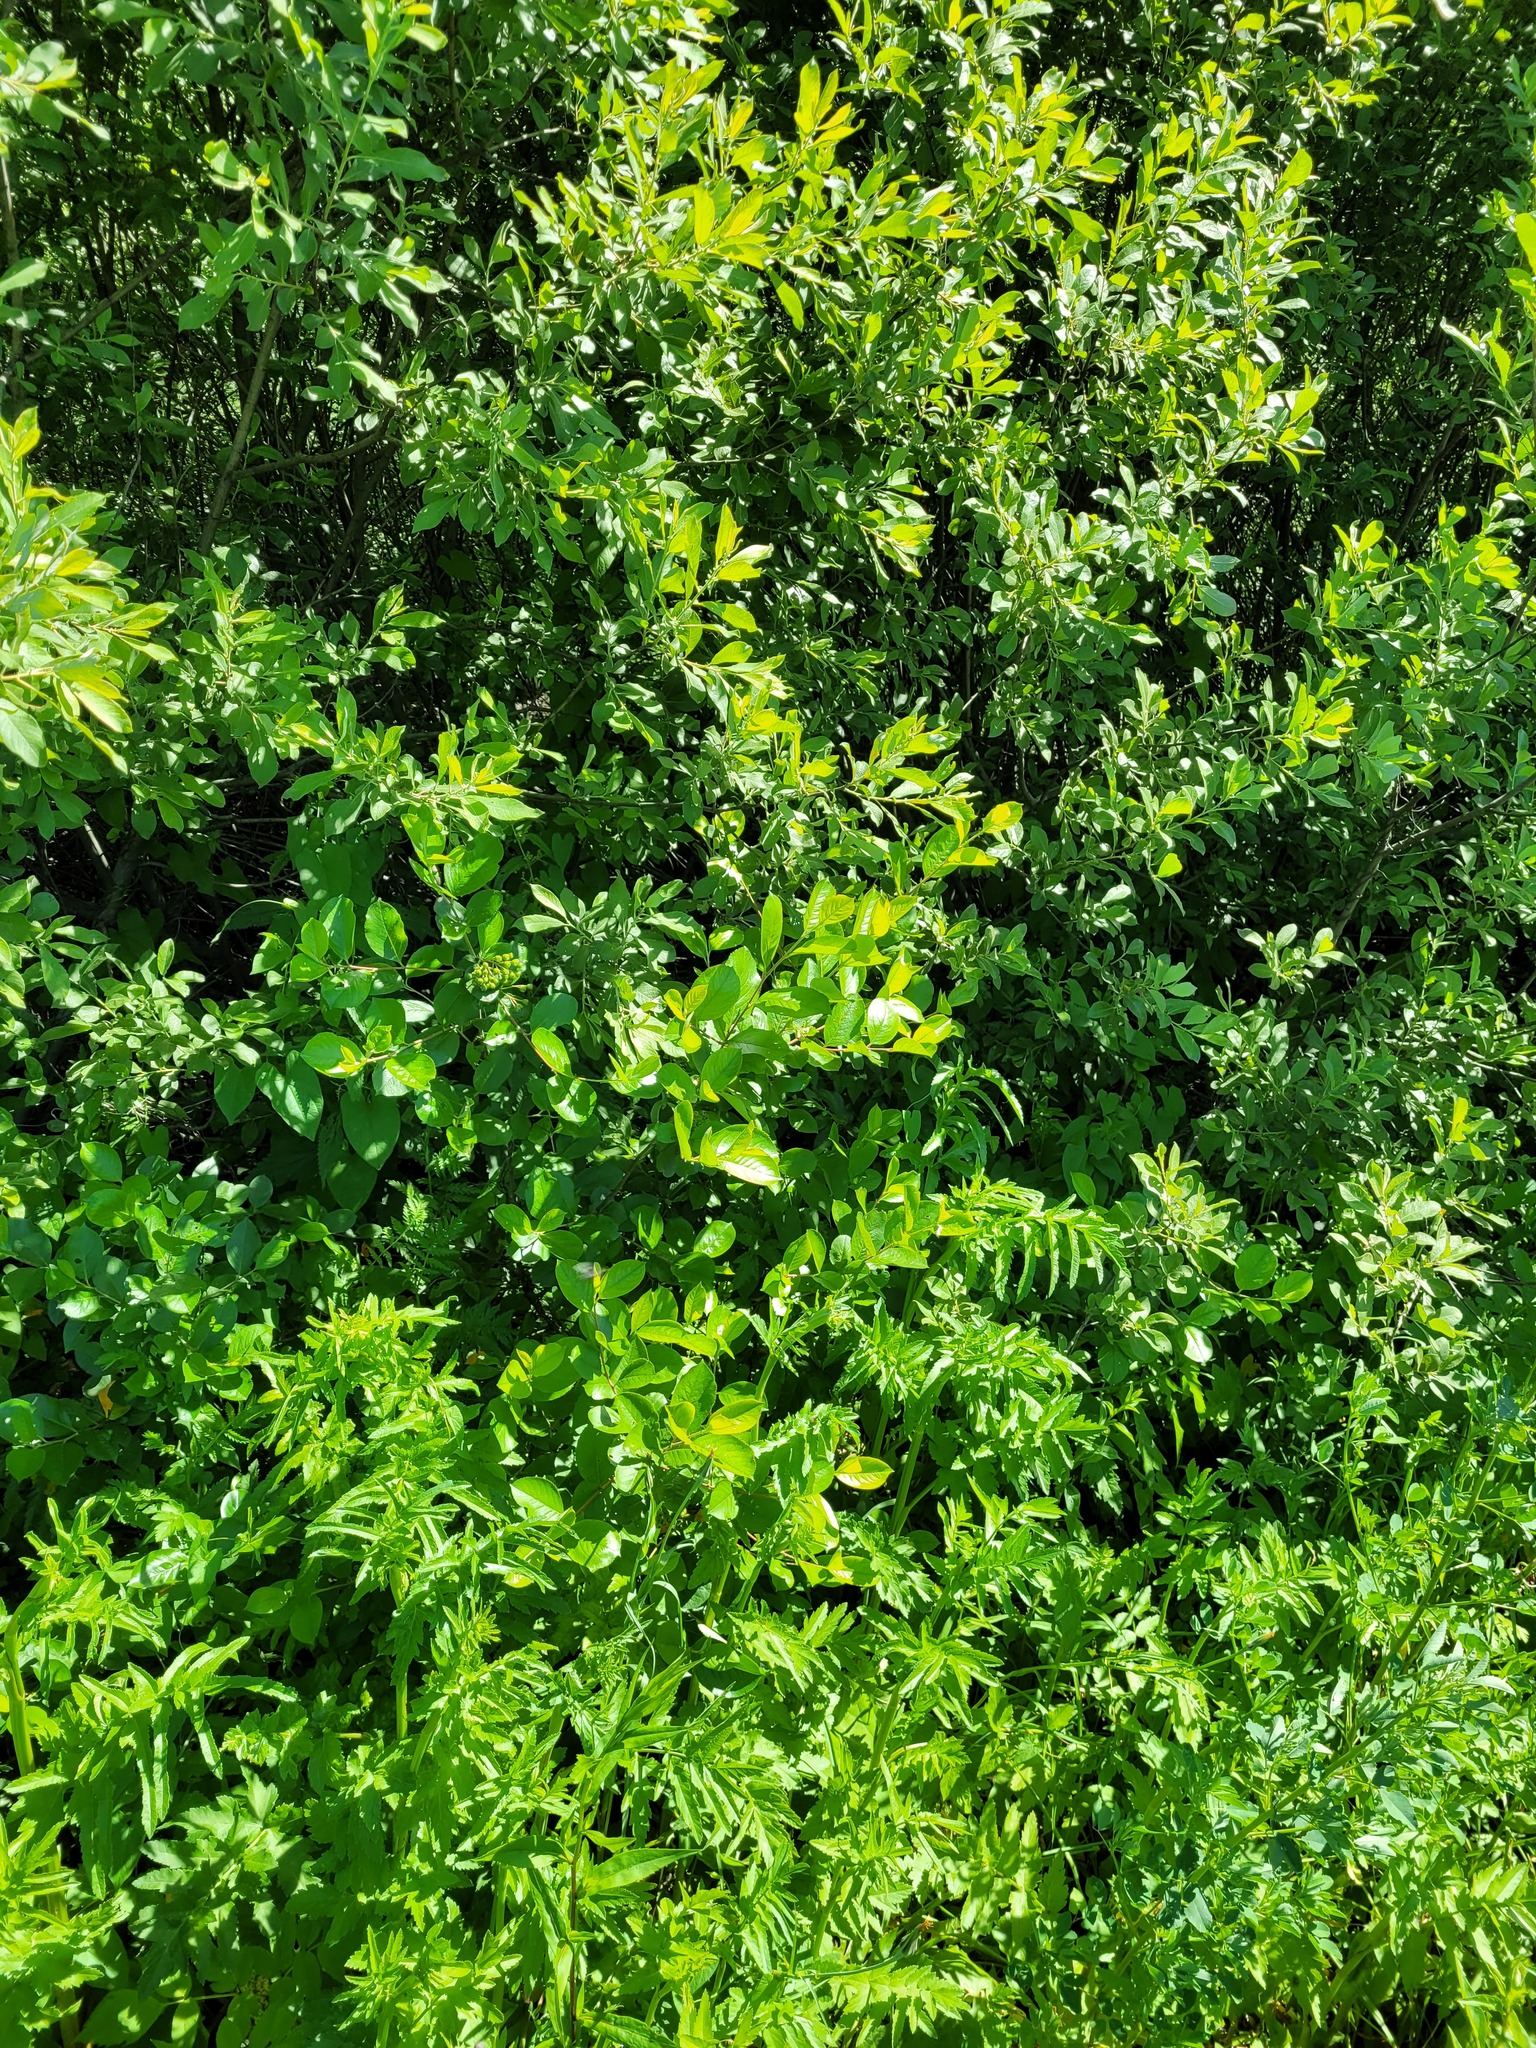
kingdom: Plantae
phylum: Tracheophyta
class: Magnoliopsida
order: Rosales
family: Rosaceae
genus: Sorbaronia
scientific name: Sorbaronia arsenii
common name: Arsène's mountain-ash
